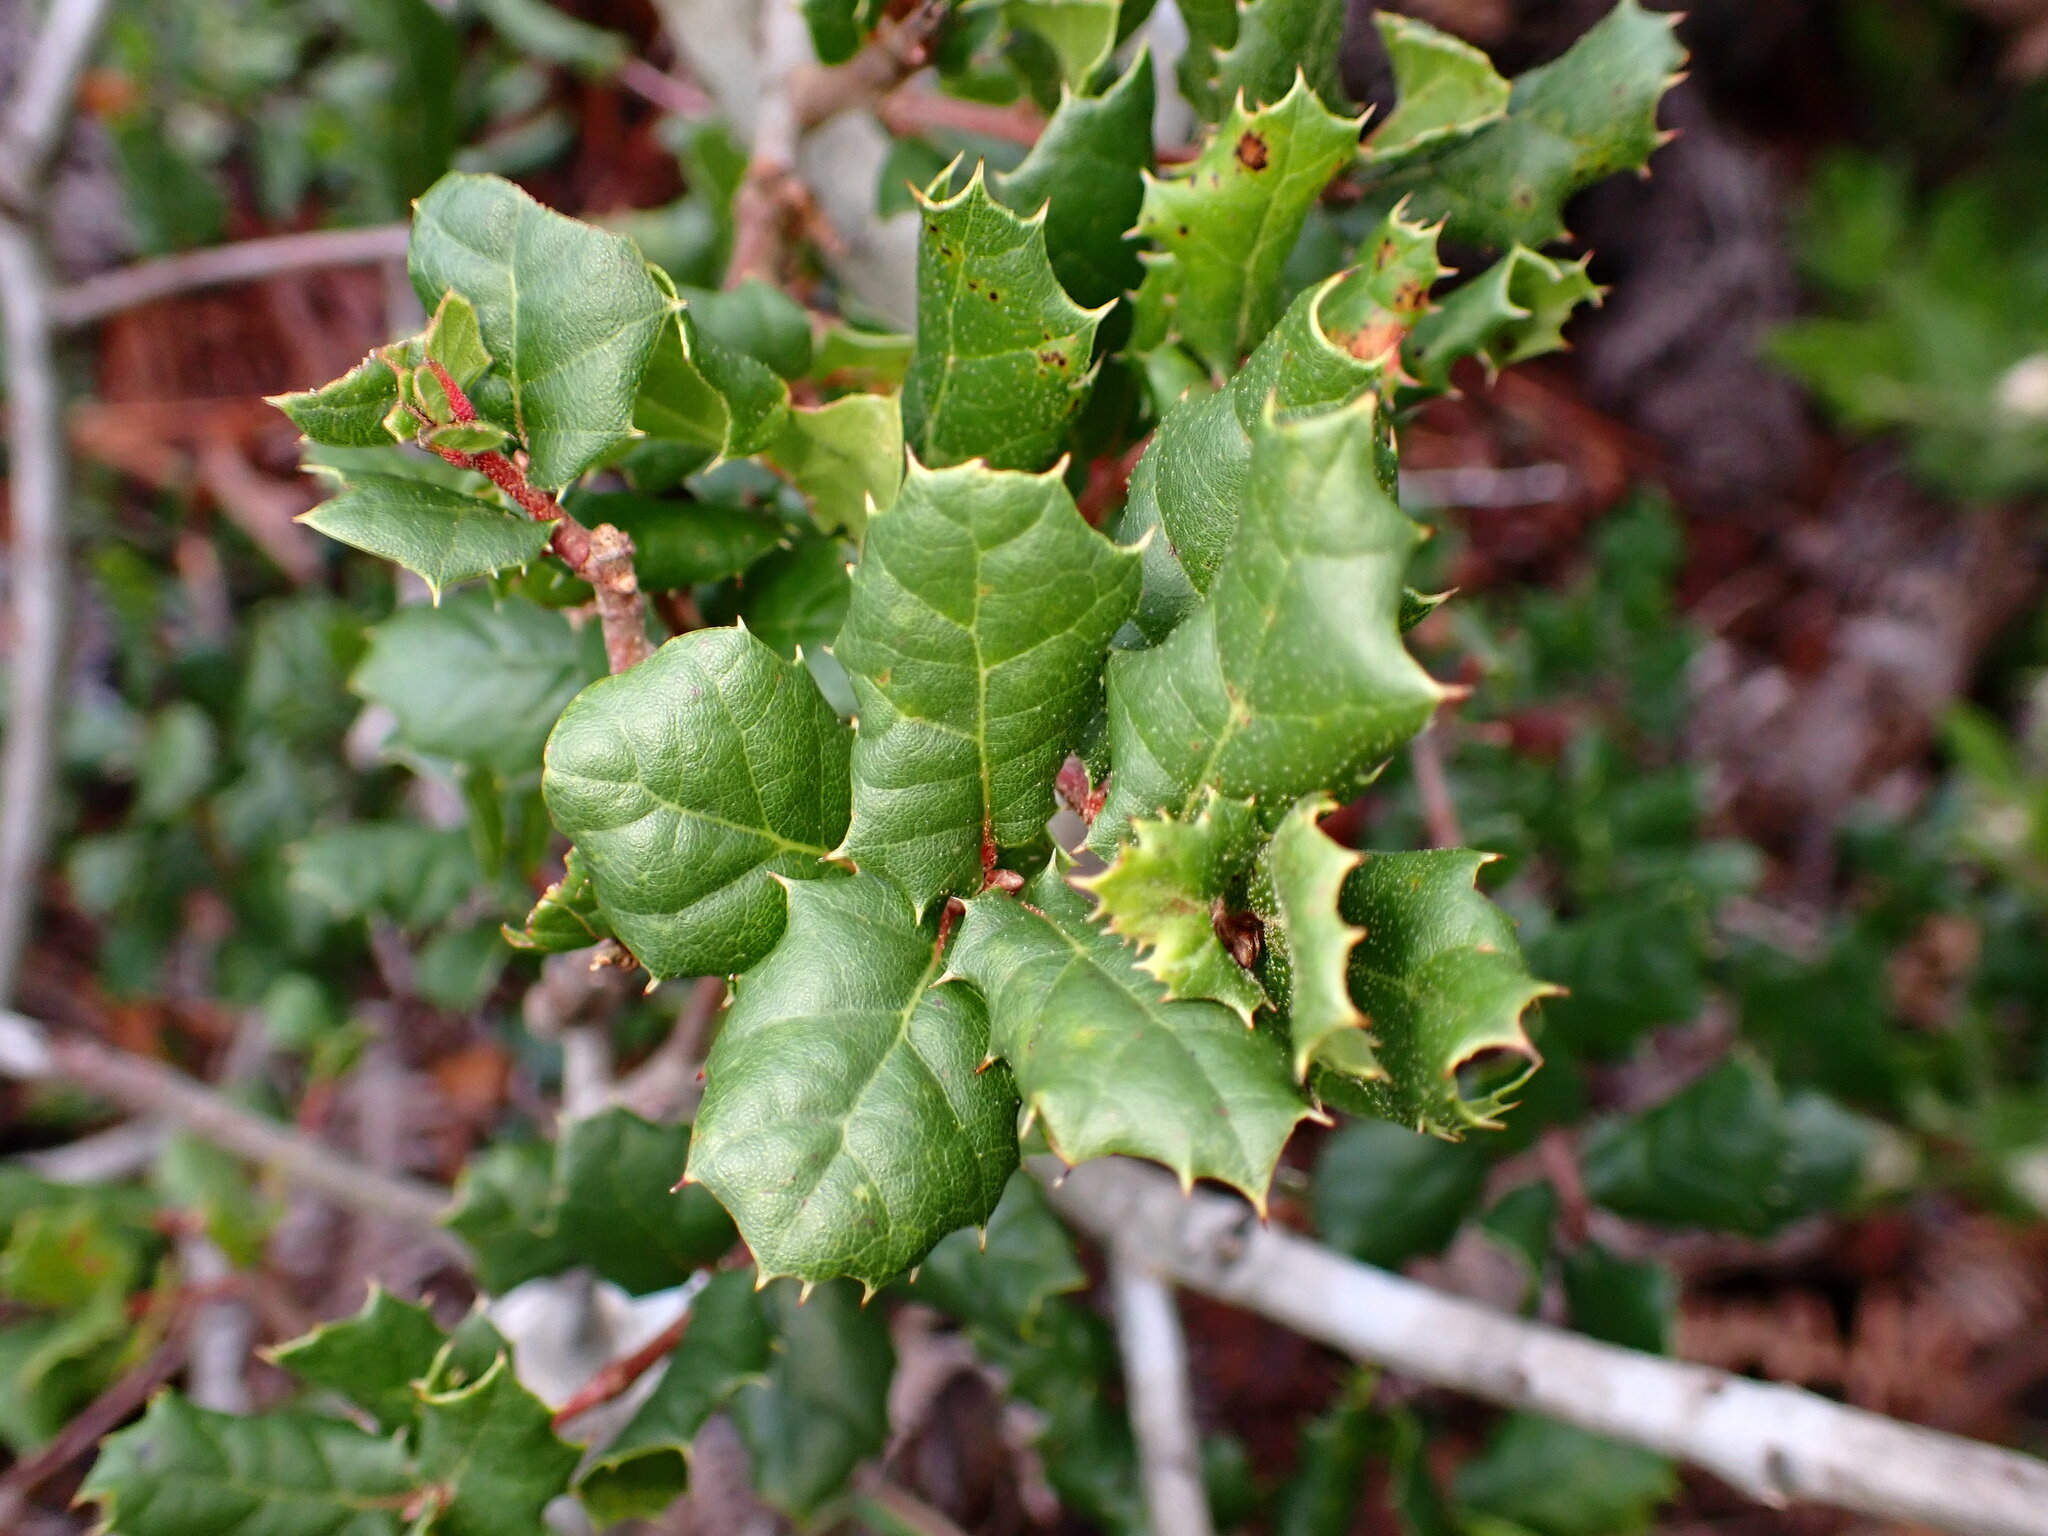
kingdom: Plantae
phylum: Tracheophyta
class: Magnoliopsida
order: Fagales
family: Fagaceae
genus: Quercus
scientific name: Quercus agrifolia
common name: California live oak
